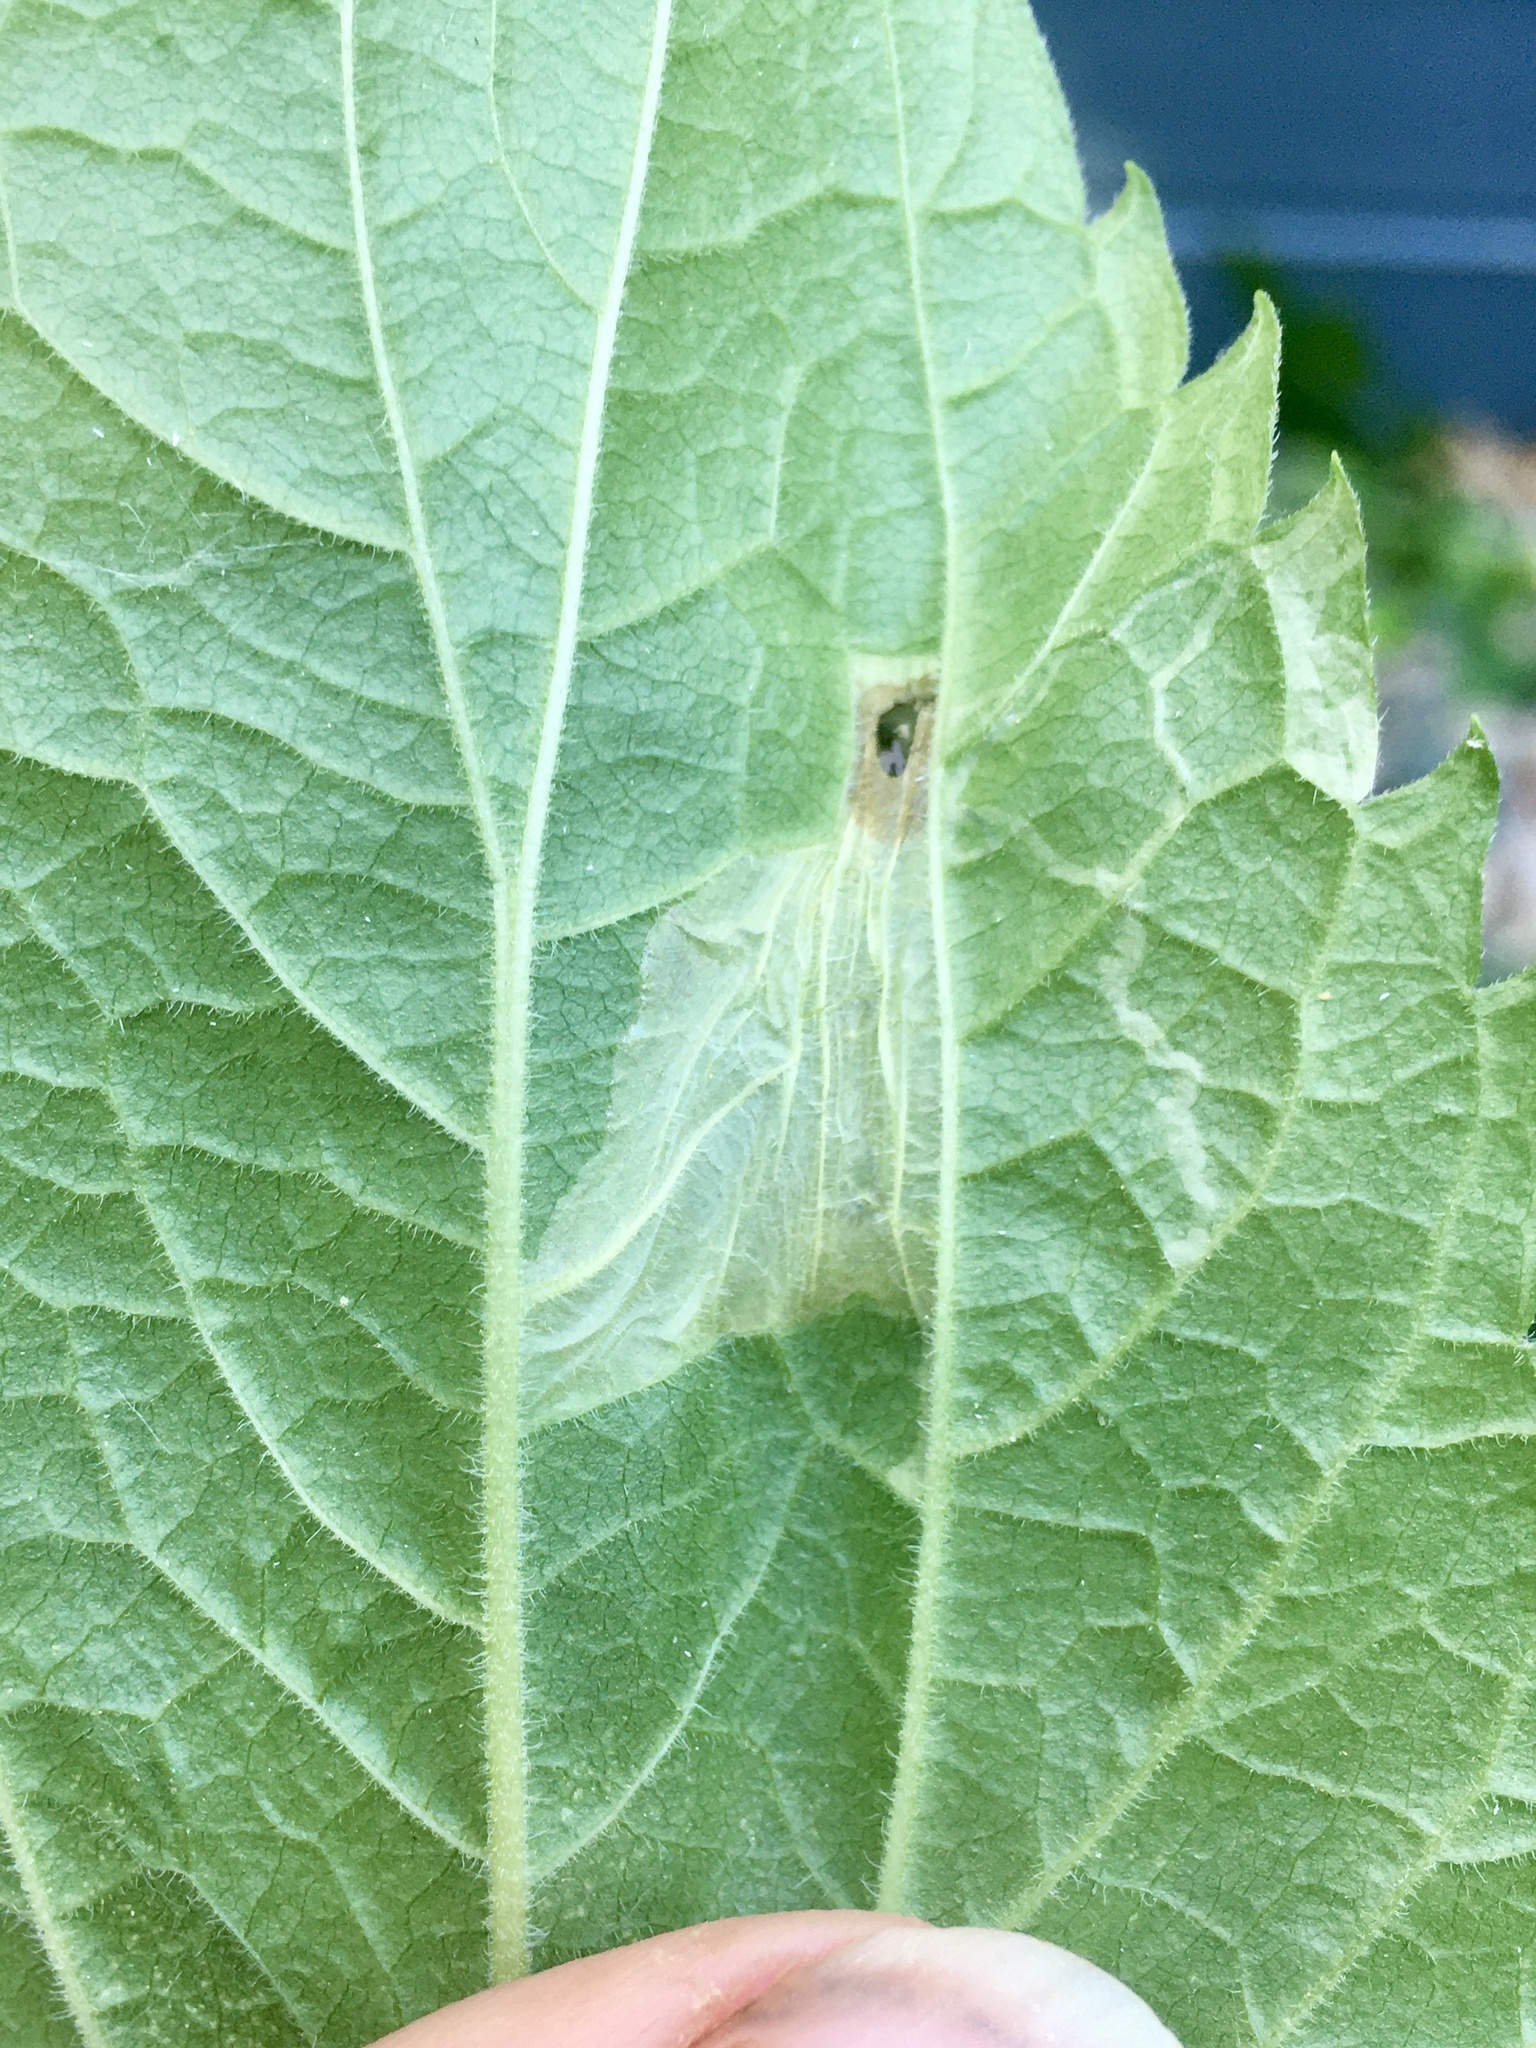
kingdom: Animalia
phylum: Arthropoda
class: Insecta
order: Lepidoptera
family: Gracillariidae
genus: Leucospilapteryx
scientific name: Leucospilapteryx venustella
